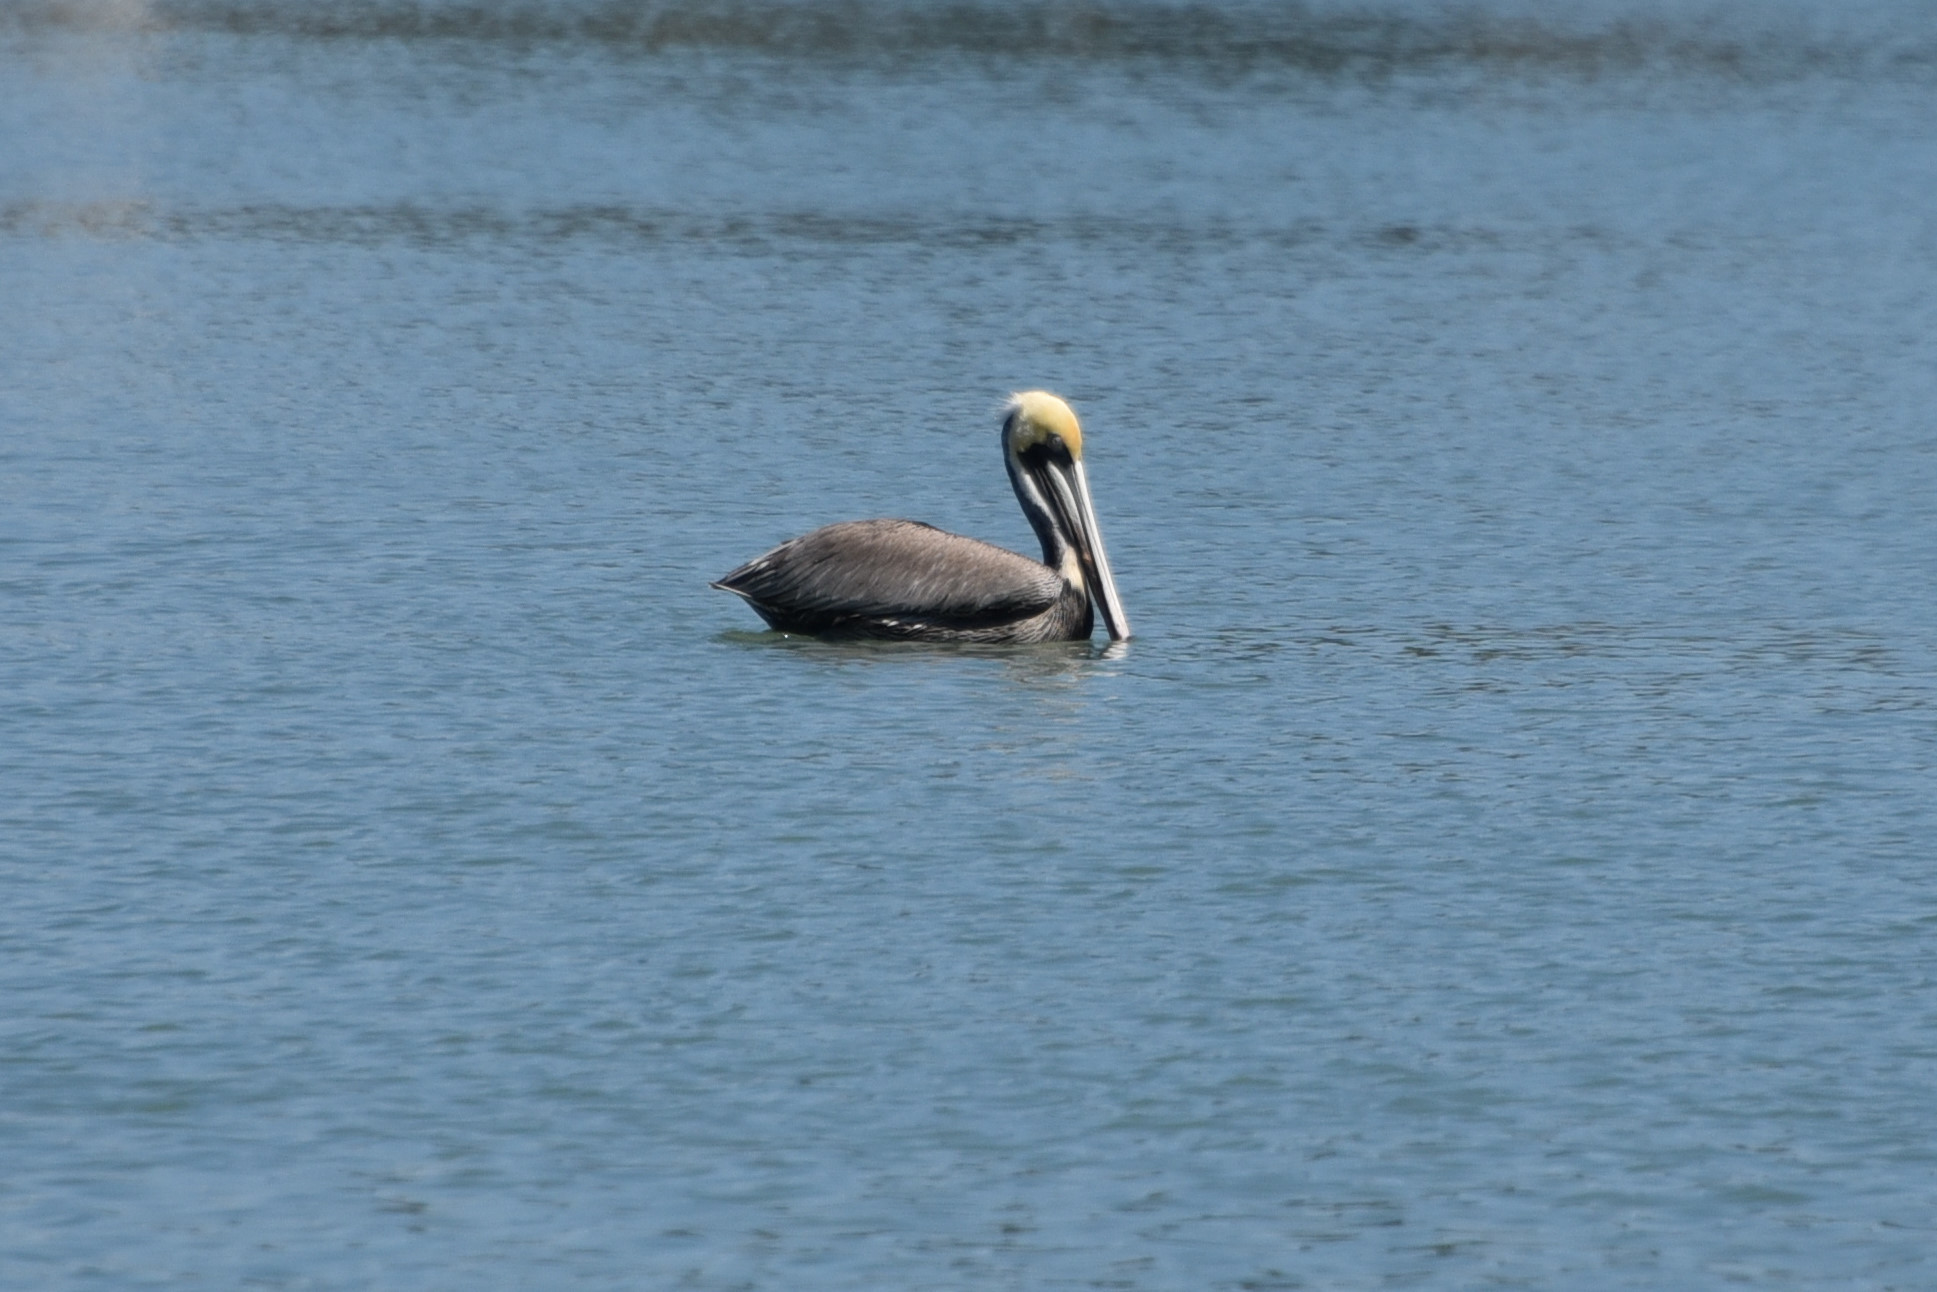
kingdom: Animalia
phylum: Chordata
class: Aves
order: Pelecaniformes
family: Pelecanidae
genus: Pelecanus
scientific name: Pelecanus occidentalis
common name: Brown pelican
